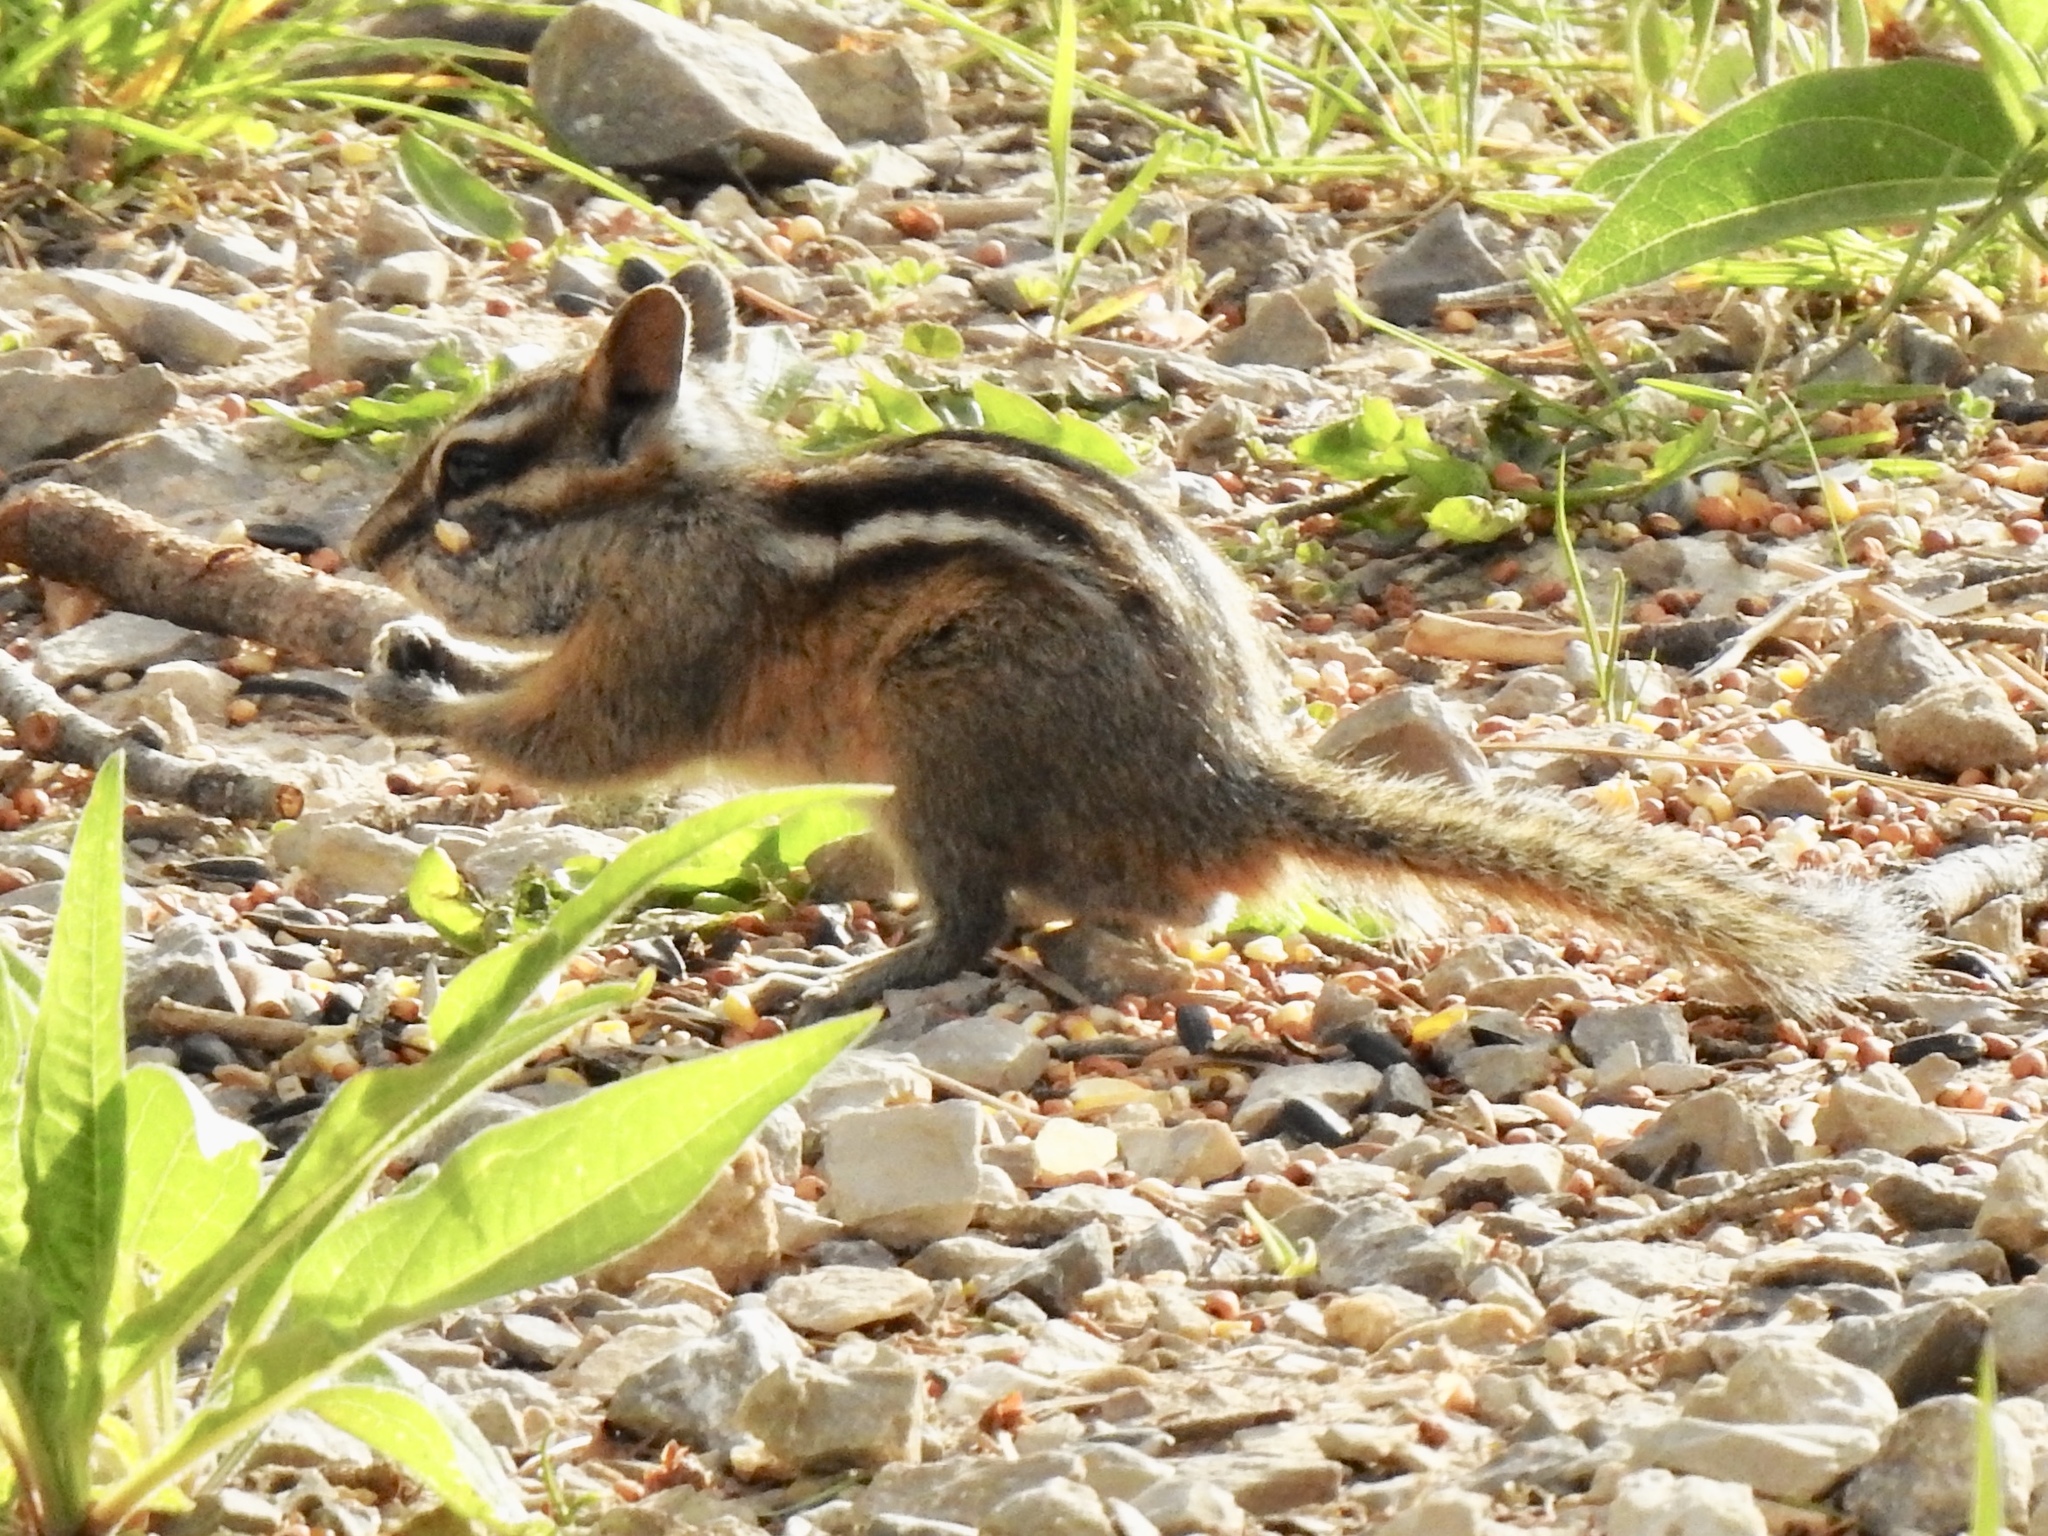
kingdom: Animalia
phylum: Chordata
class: Mammalia
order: Rodentia
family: Sciuridae
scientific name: Sciuridae
